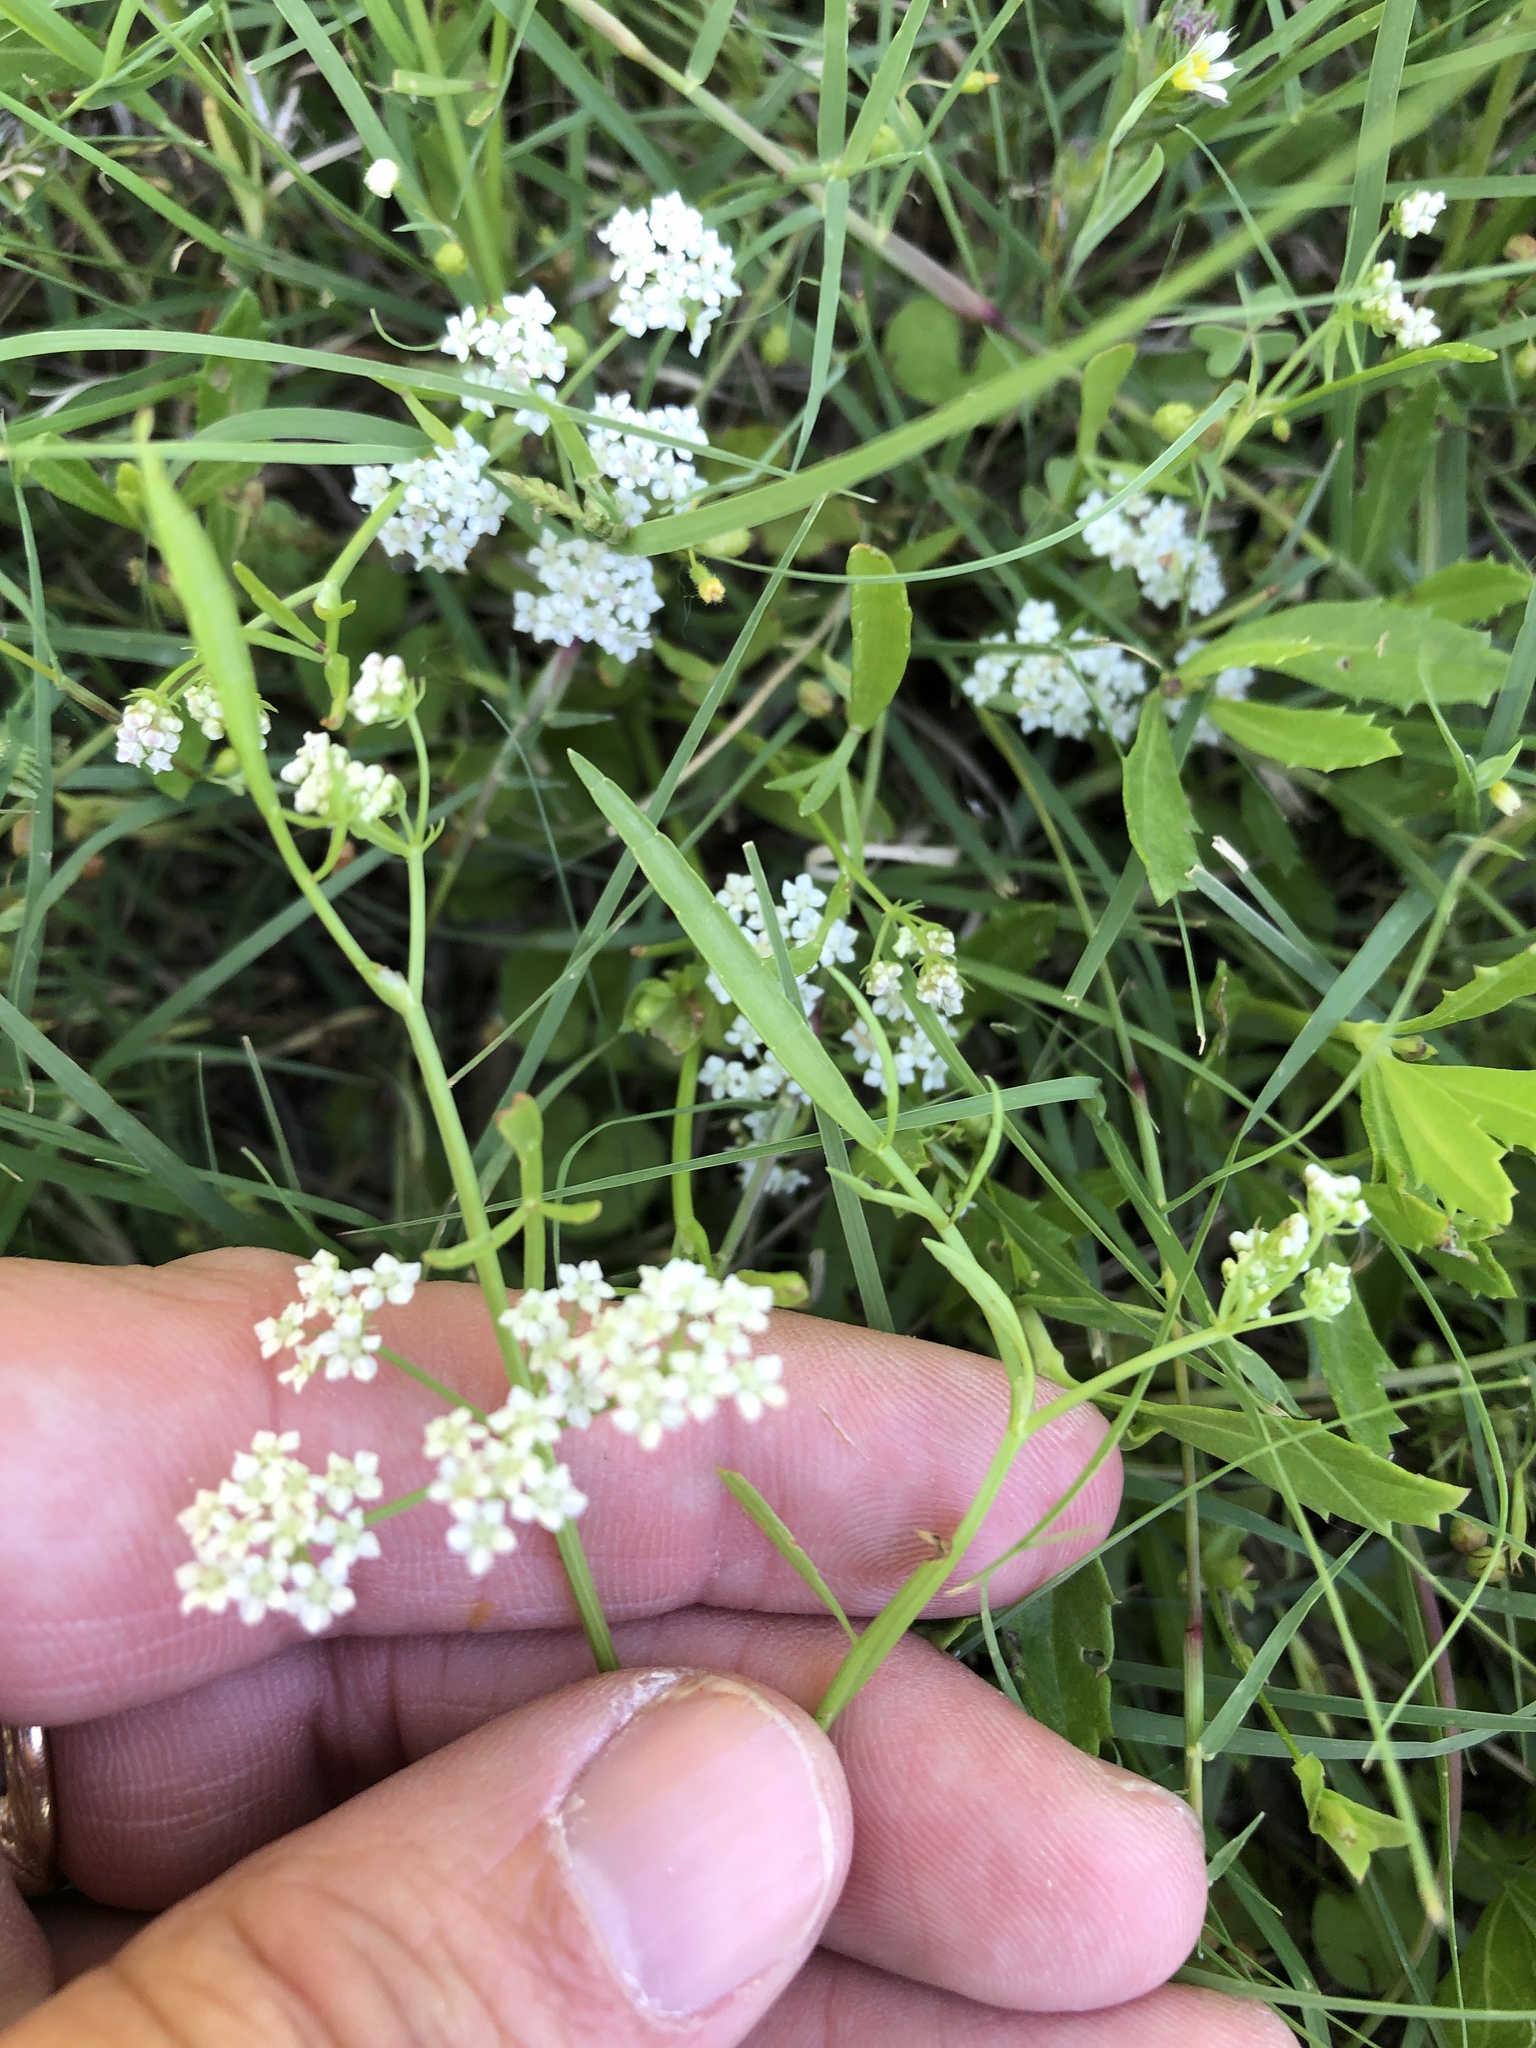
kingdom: Plantae
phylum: Tracheophyta
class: Magnoliopsida
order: Apiales
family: Apiaceae
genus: Limnosciadium
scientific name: Limnosciadium pinnatum
